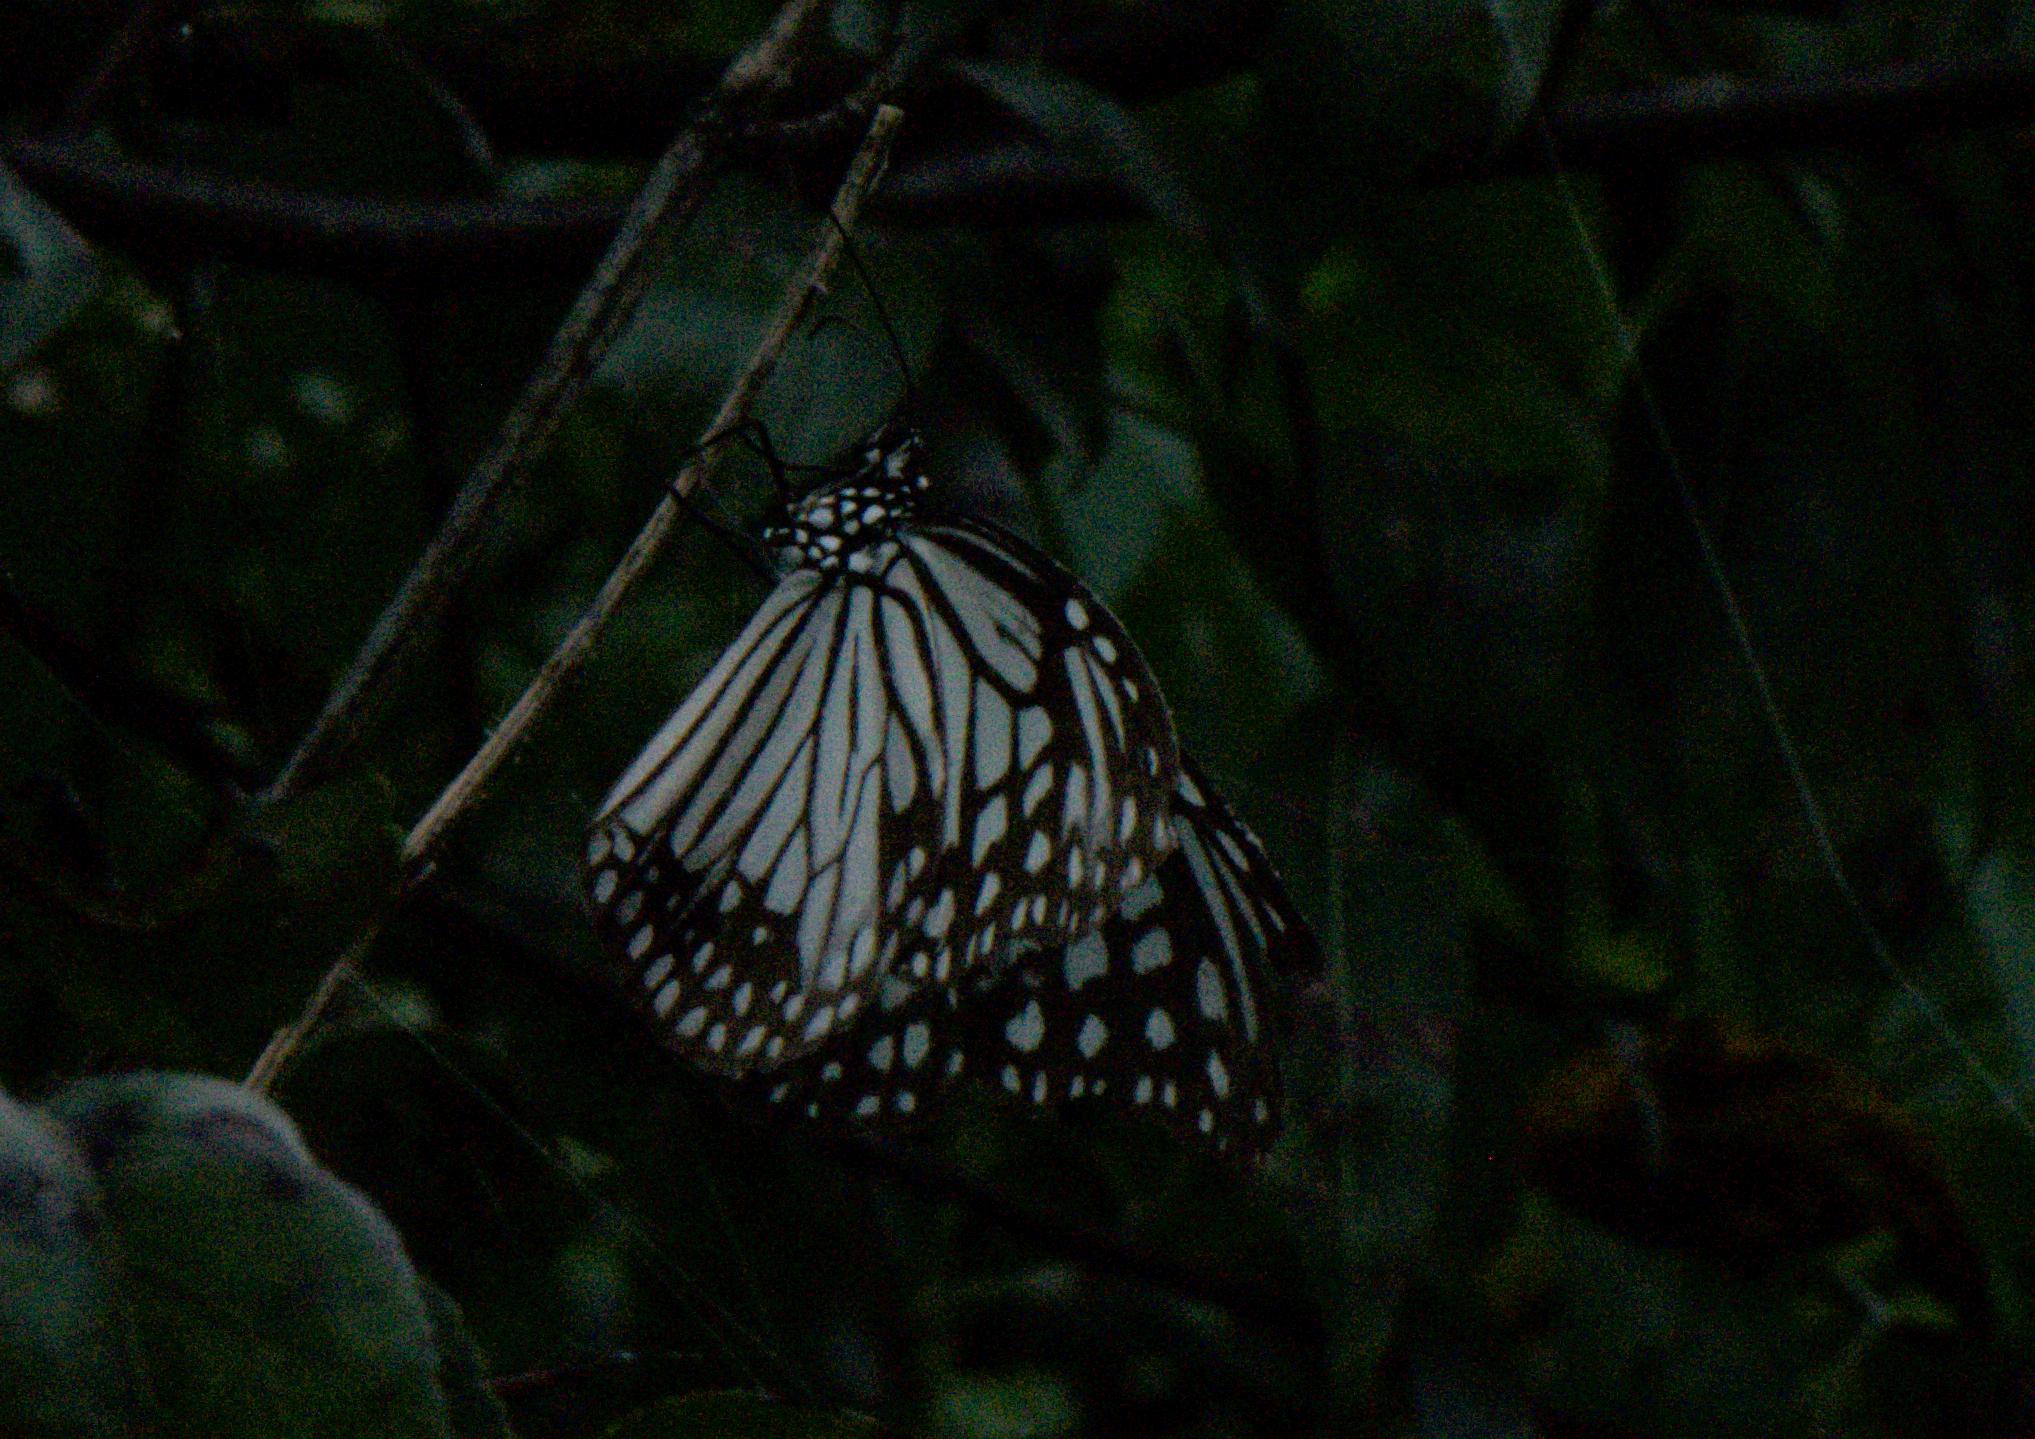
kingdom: Animalia
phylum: Arthropoda
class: Insecta
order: Lepidoptera
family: Nymphalidae
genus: Parantica
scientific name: Parantica aglea
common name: Glassy tiger
